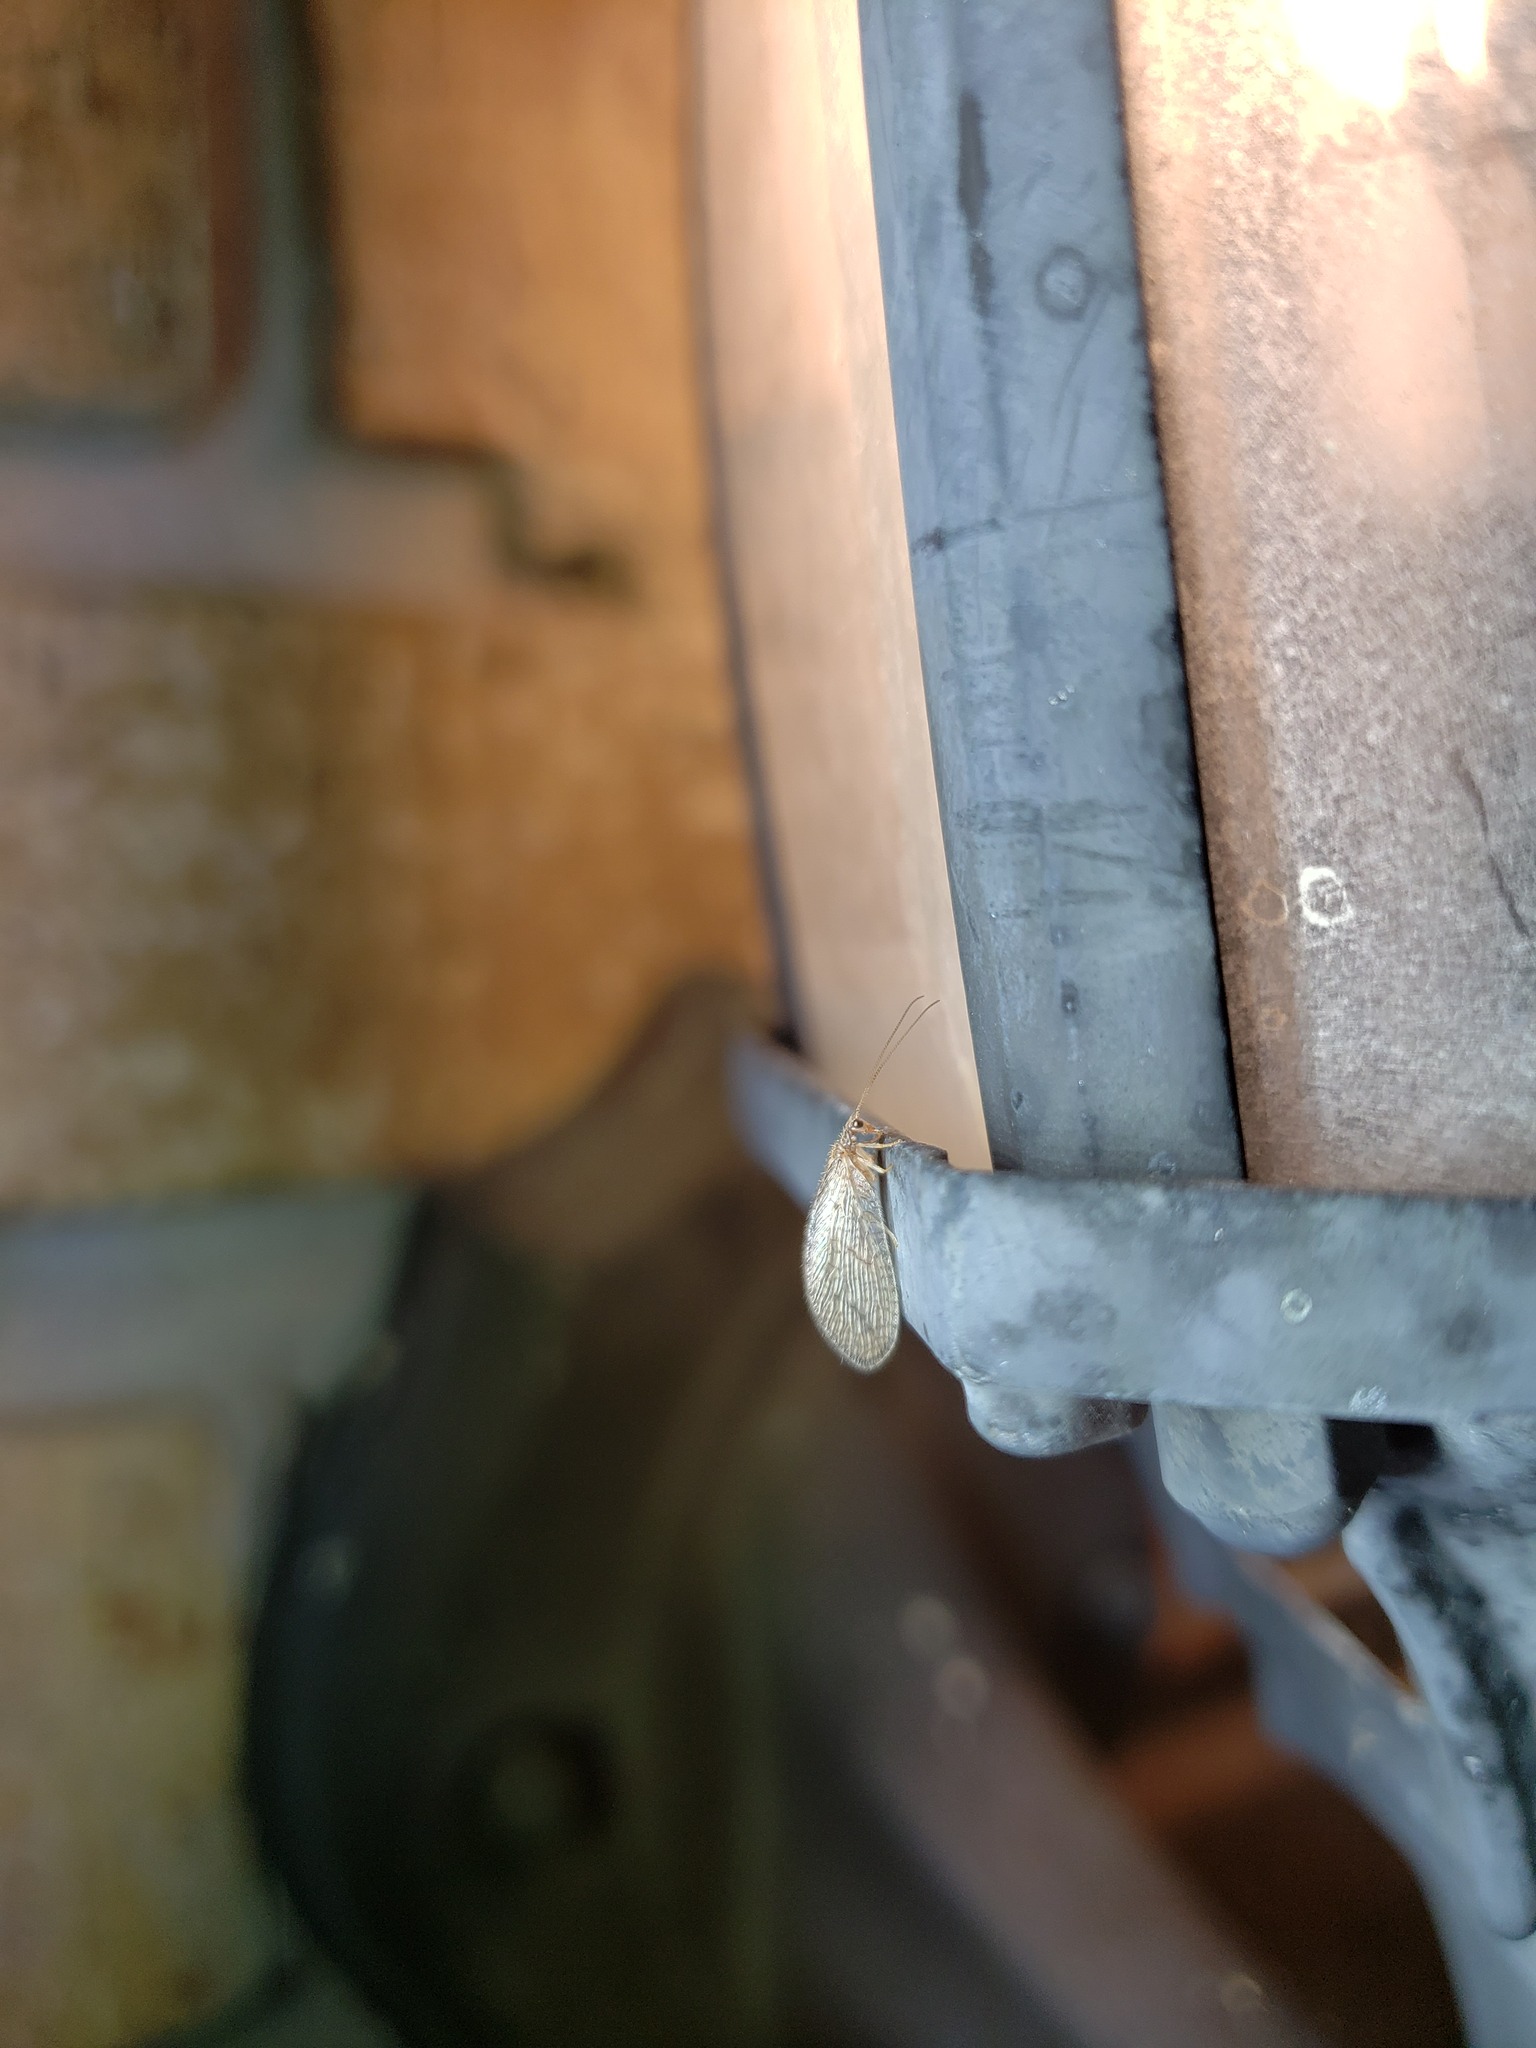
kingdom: Animalia
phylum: Arthropoda
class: Insecta
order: Neuroptera
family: Hemerobiidae
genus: Micromus
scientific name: Micromus posticus
